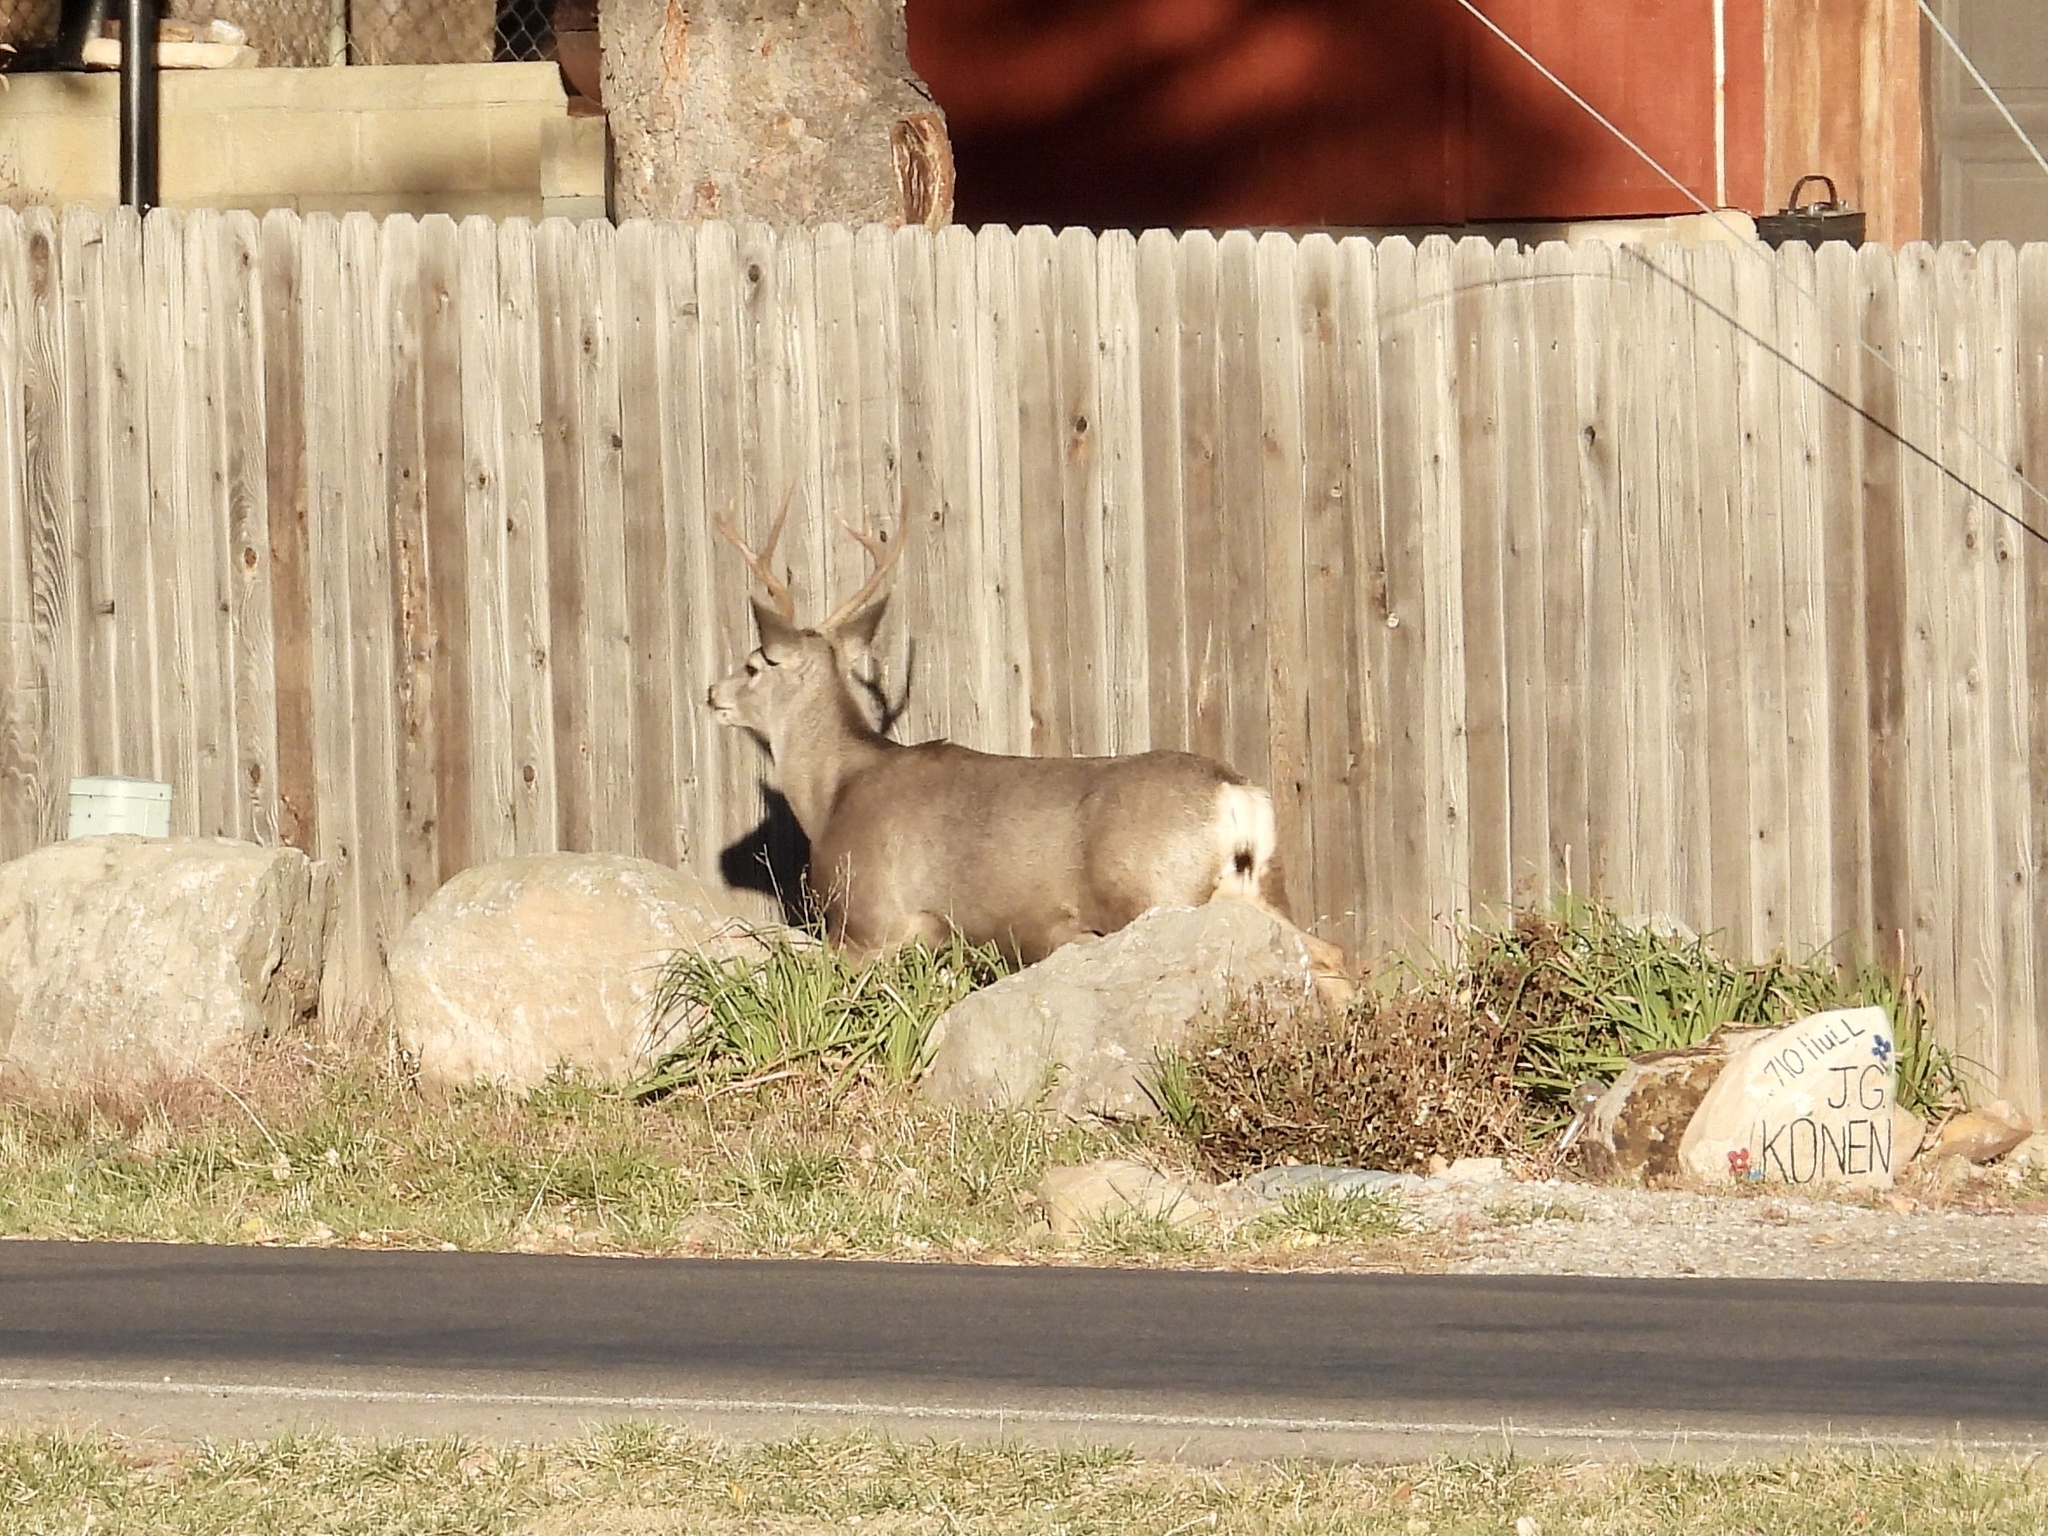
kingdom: Animalia
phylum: Chordata
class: Mammalia
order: Artiodactyla
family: Cervidae
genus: Odocoileus
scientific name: Odocoileus hemionus
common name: Mule deer
